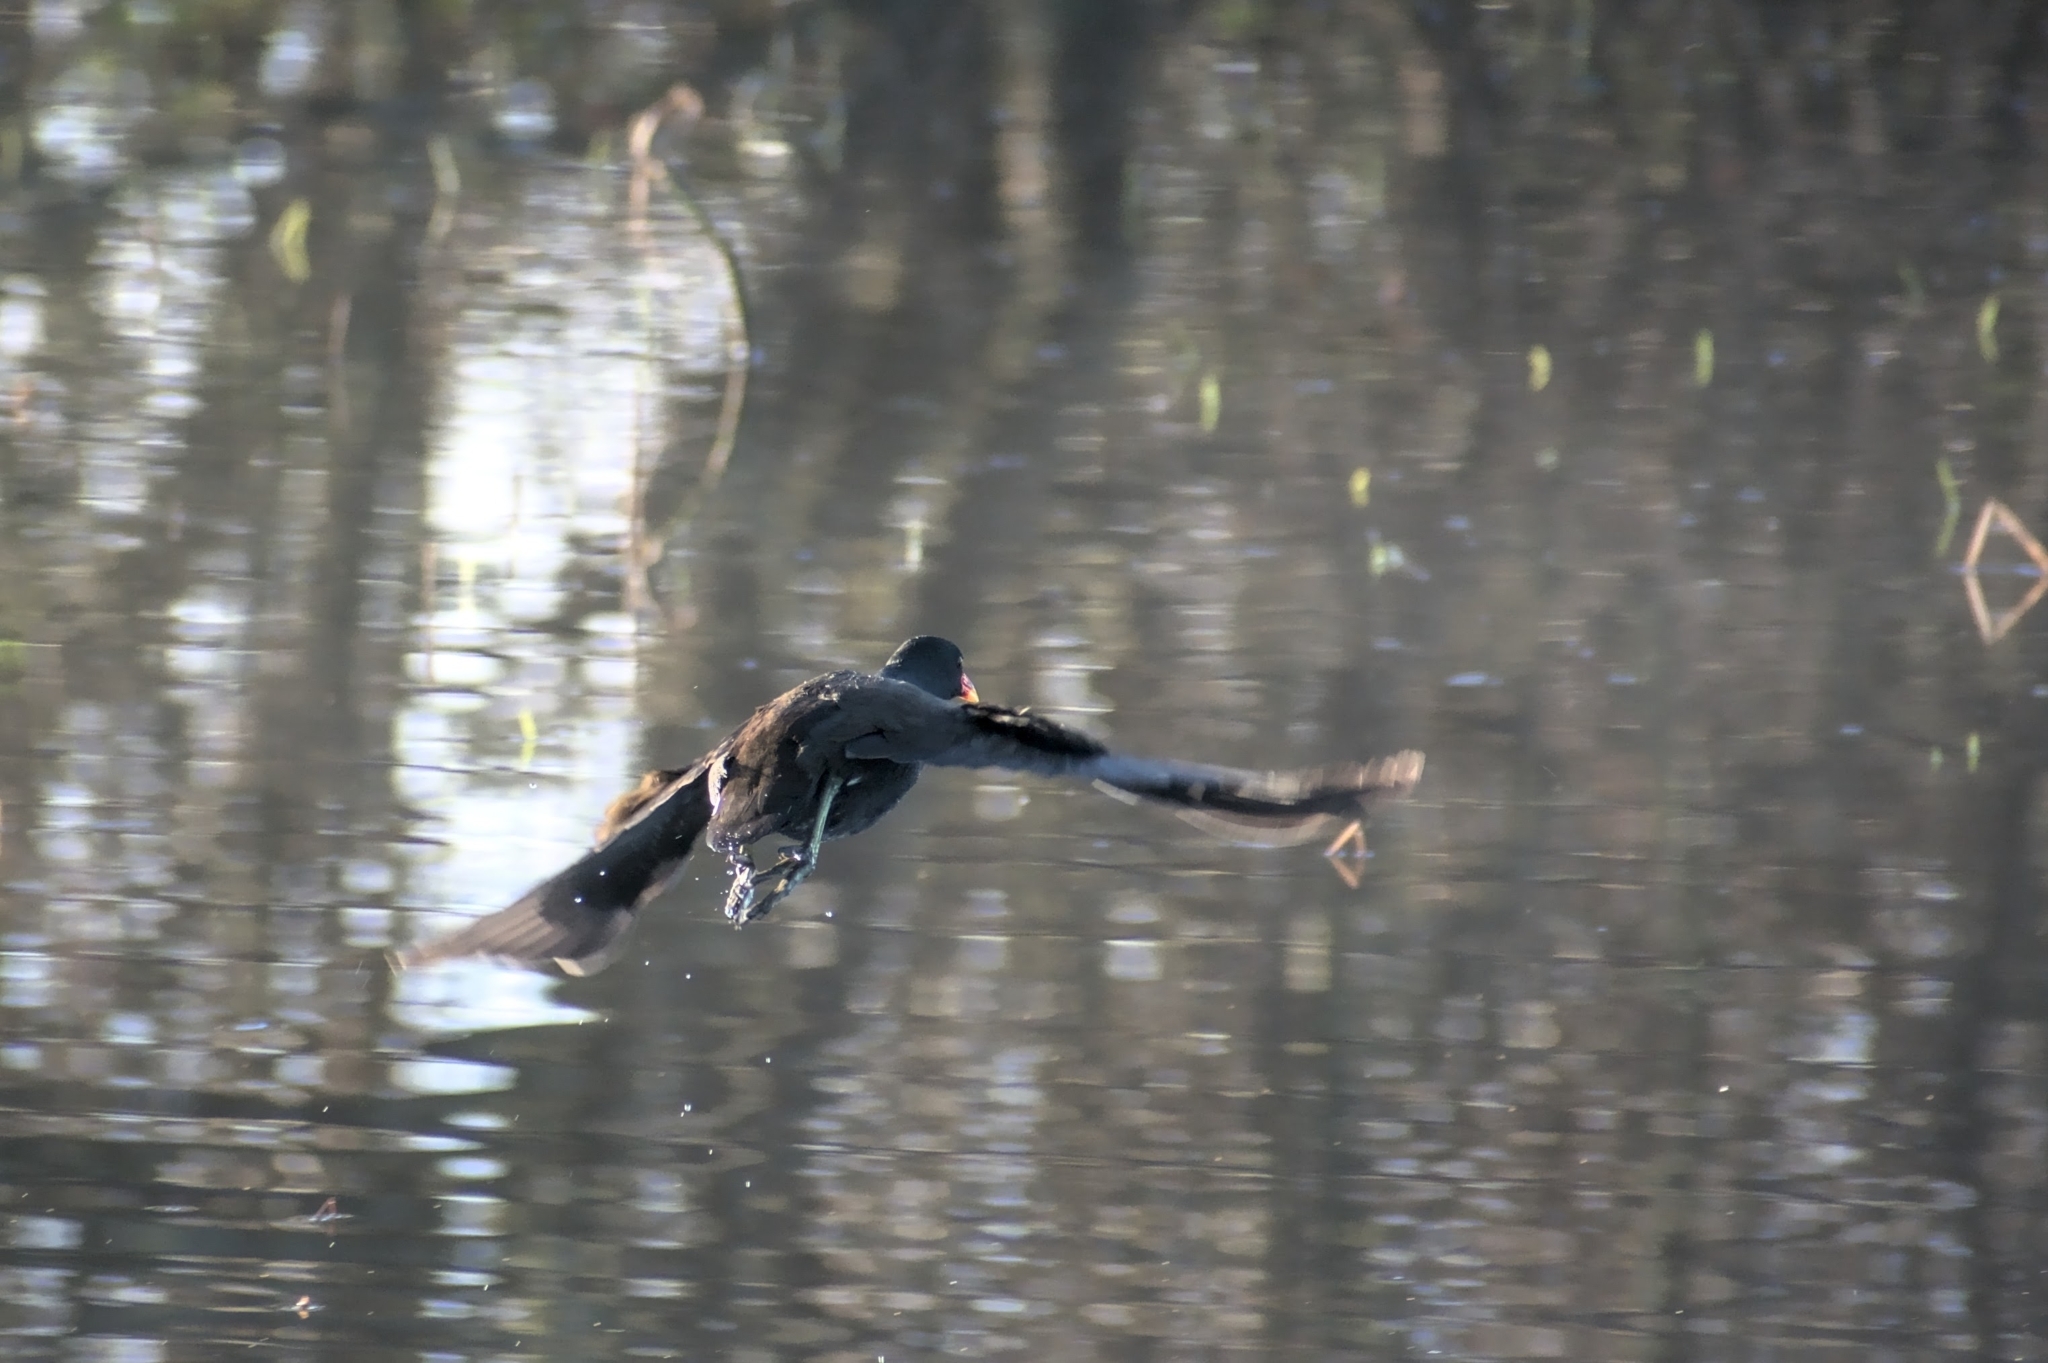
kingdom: Animalia
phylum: Chordata
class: Aves
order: Gruiformes
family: Rallidae
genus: Gallinula
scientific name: Gallinula chloropus
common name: Common moorhen
